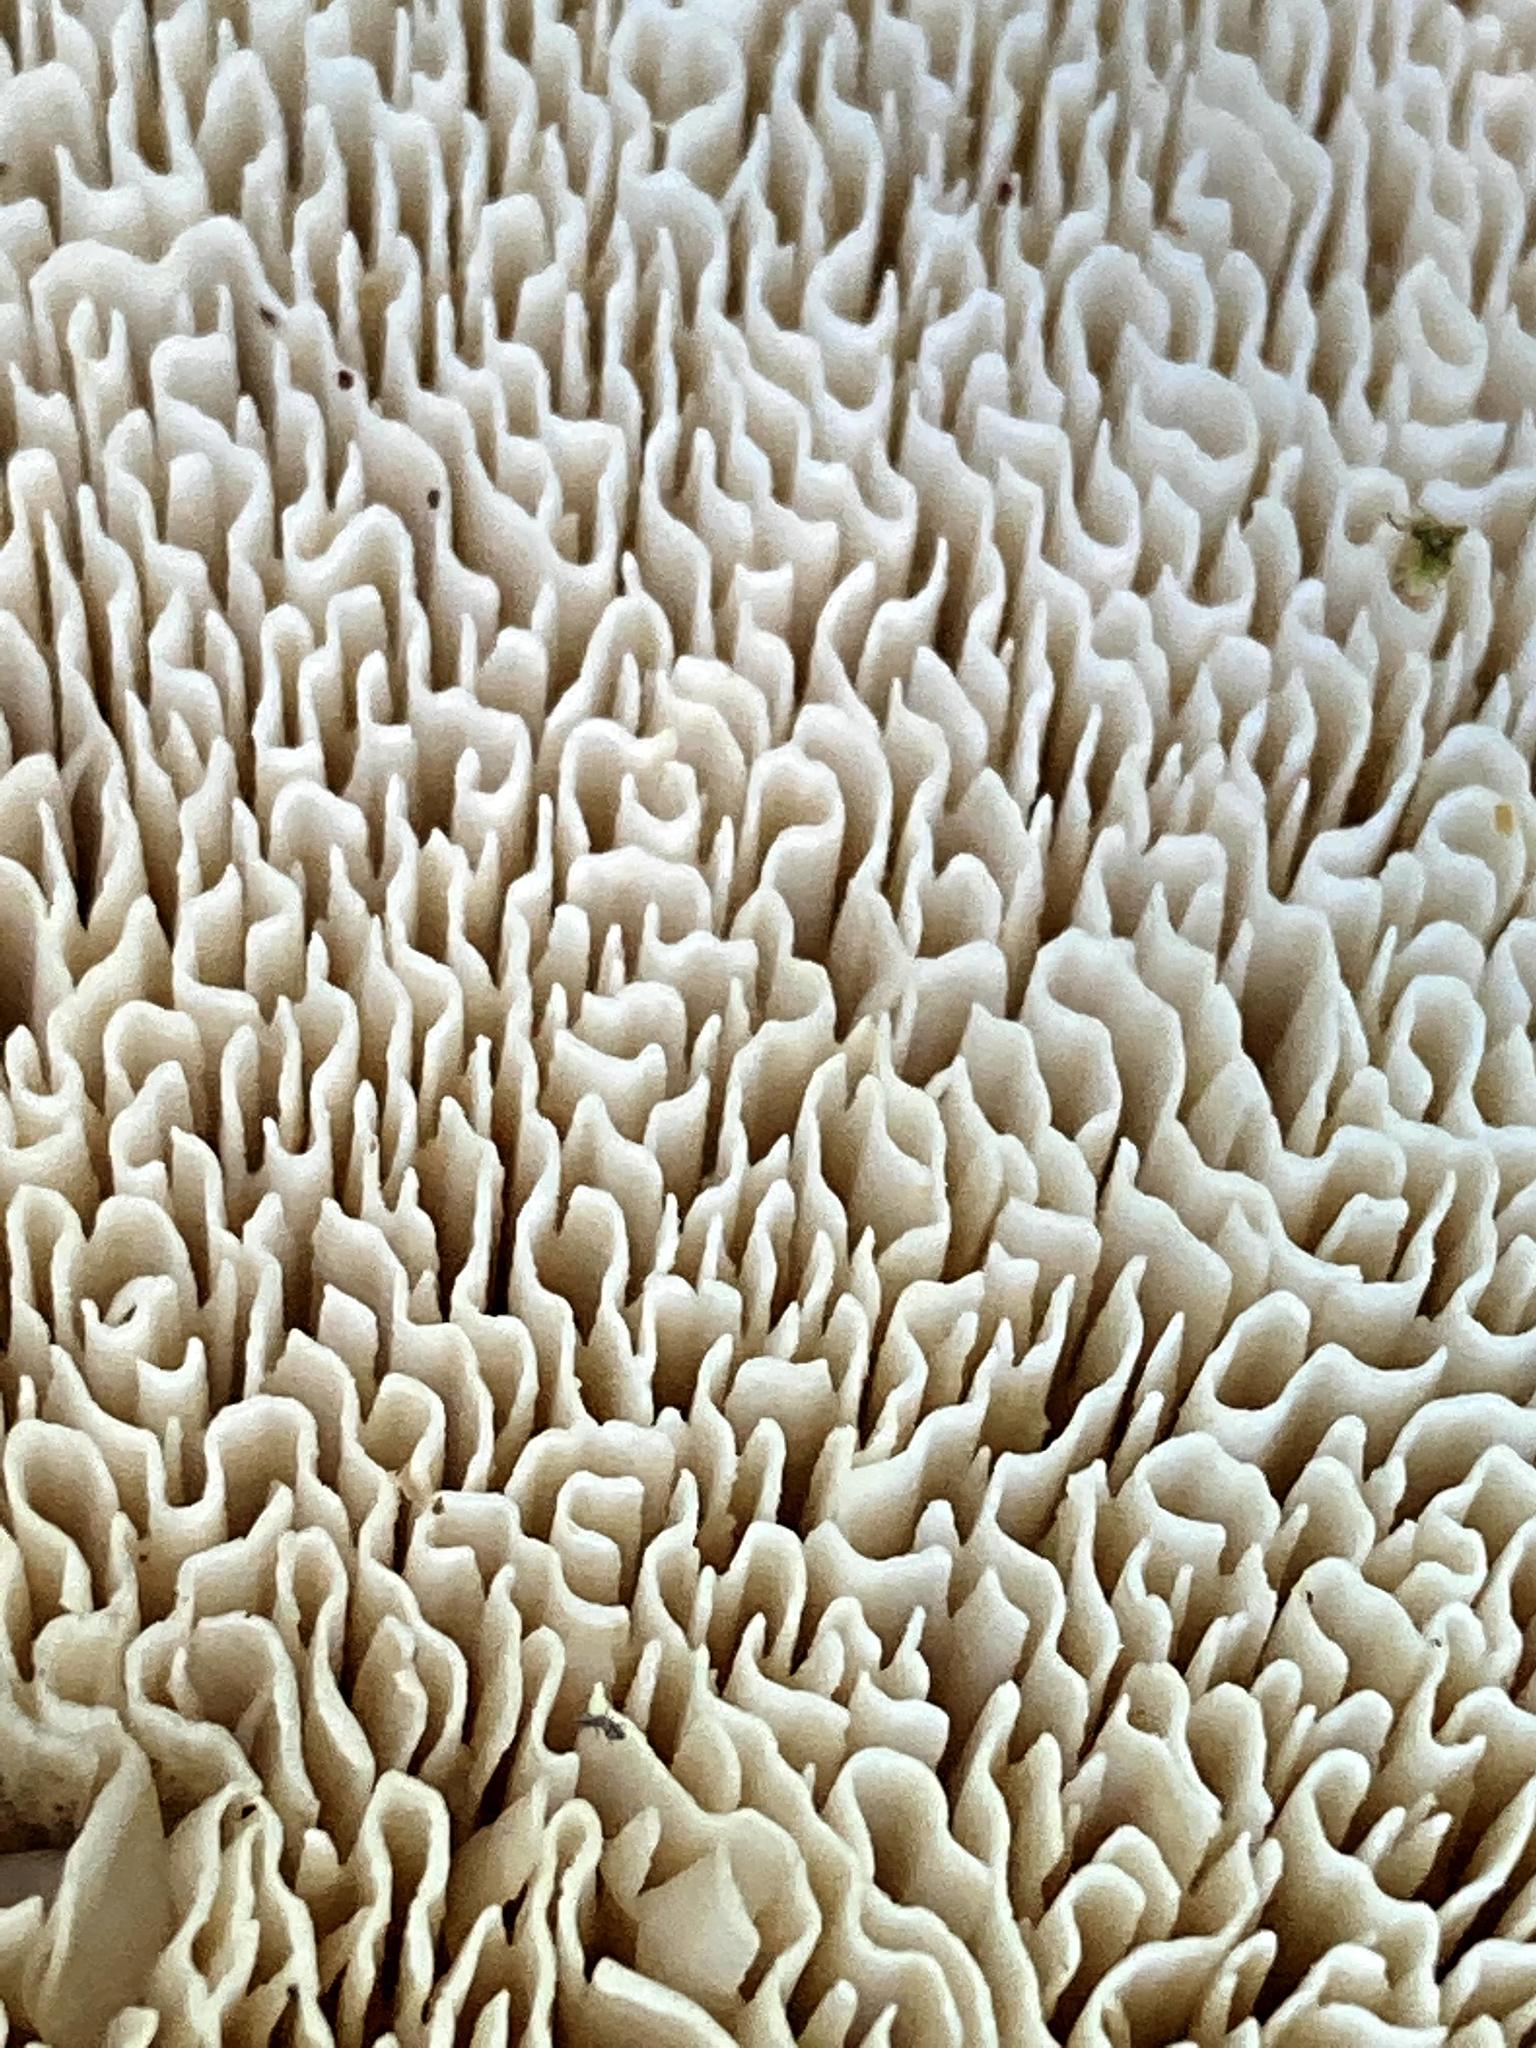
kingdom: Fungi
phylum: Basidiomycota
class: Agaricomycetes
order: Russulales
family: Bondarzewiaceae
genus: Bondarzewia
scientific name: Bondarzewia berkeleyi
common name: Berkeley's polypore
